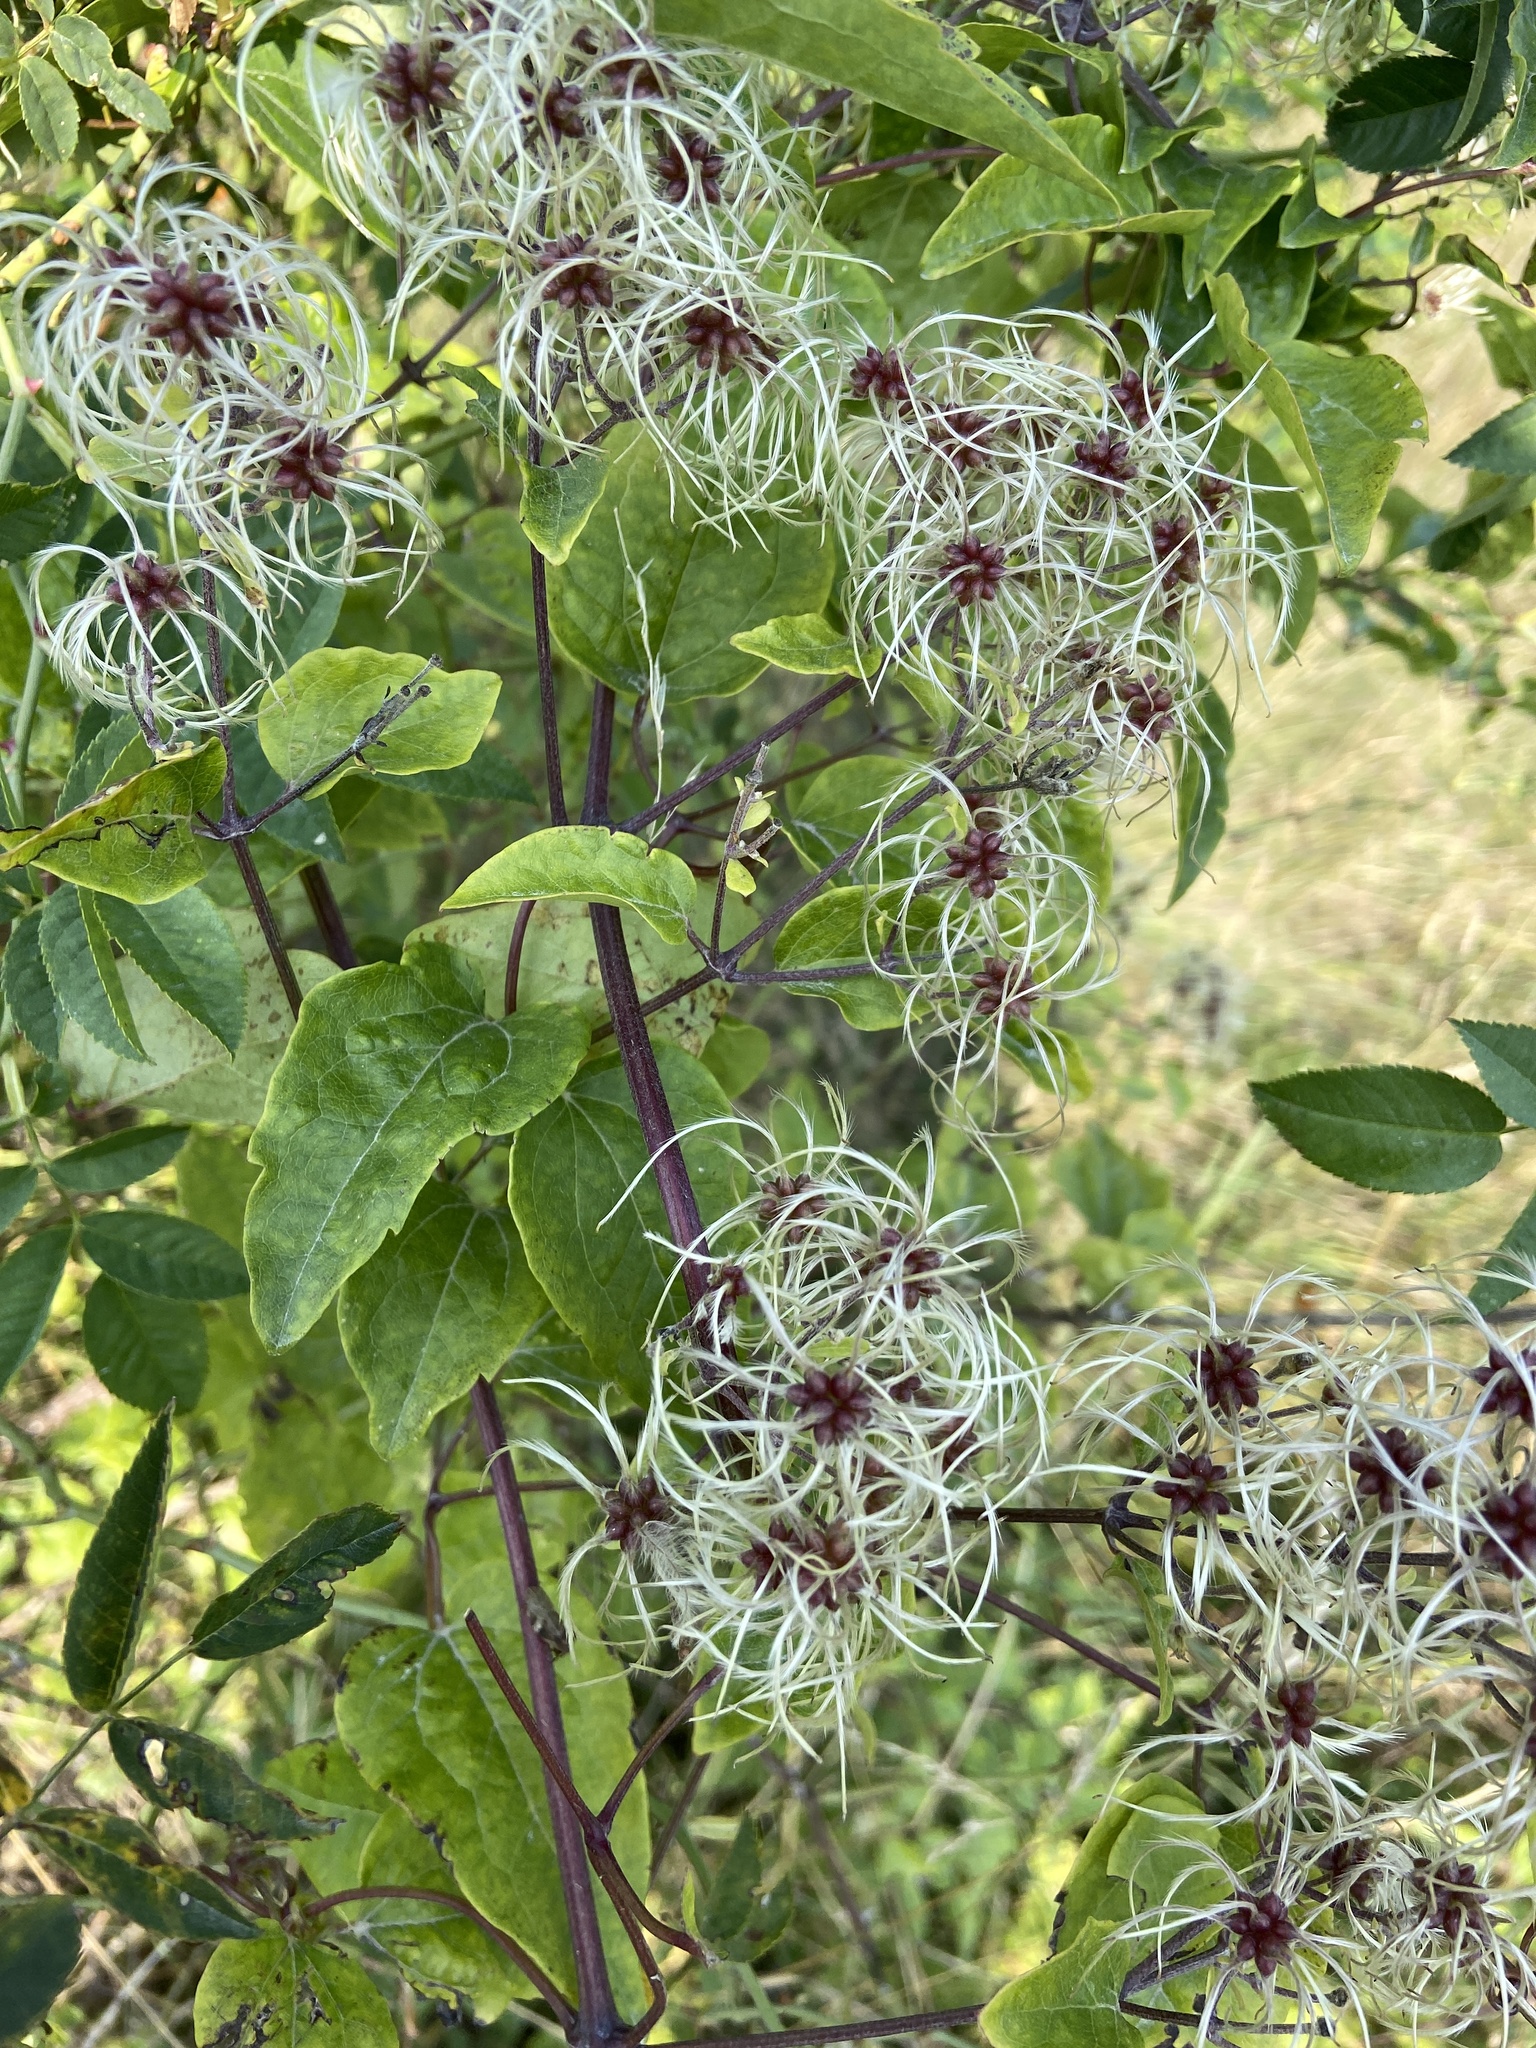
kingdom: Plantae
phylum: Tracheophyta
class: Magnoliopsida
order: Ranunculales
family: Ranunculaceae
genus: Clematis
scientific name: Clematis vitalba
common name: Evergreen clematis
